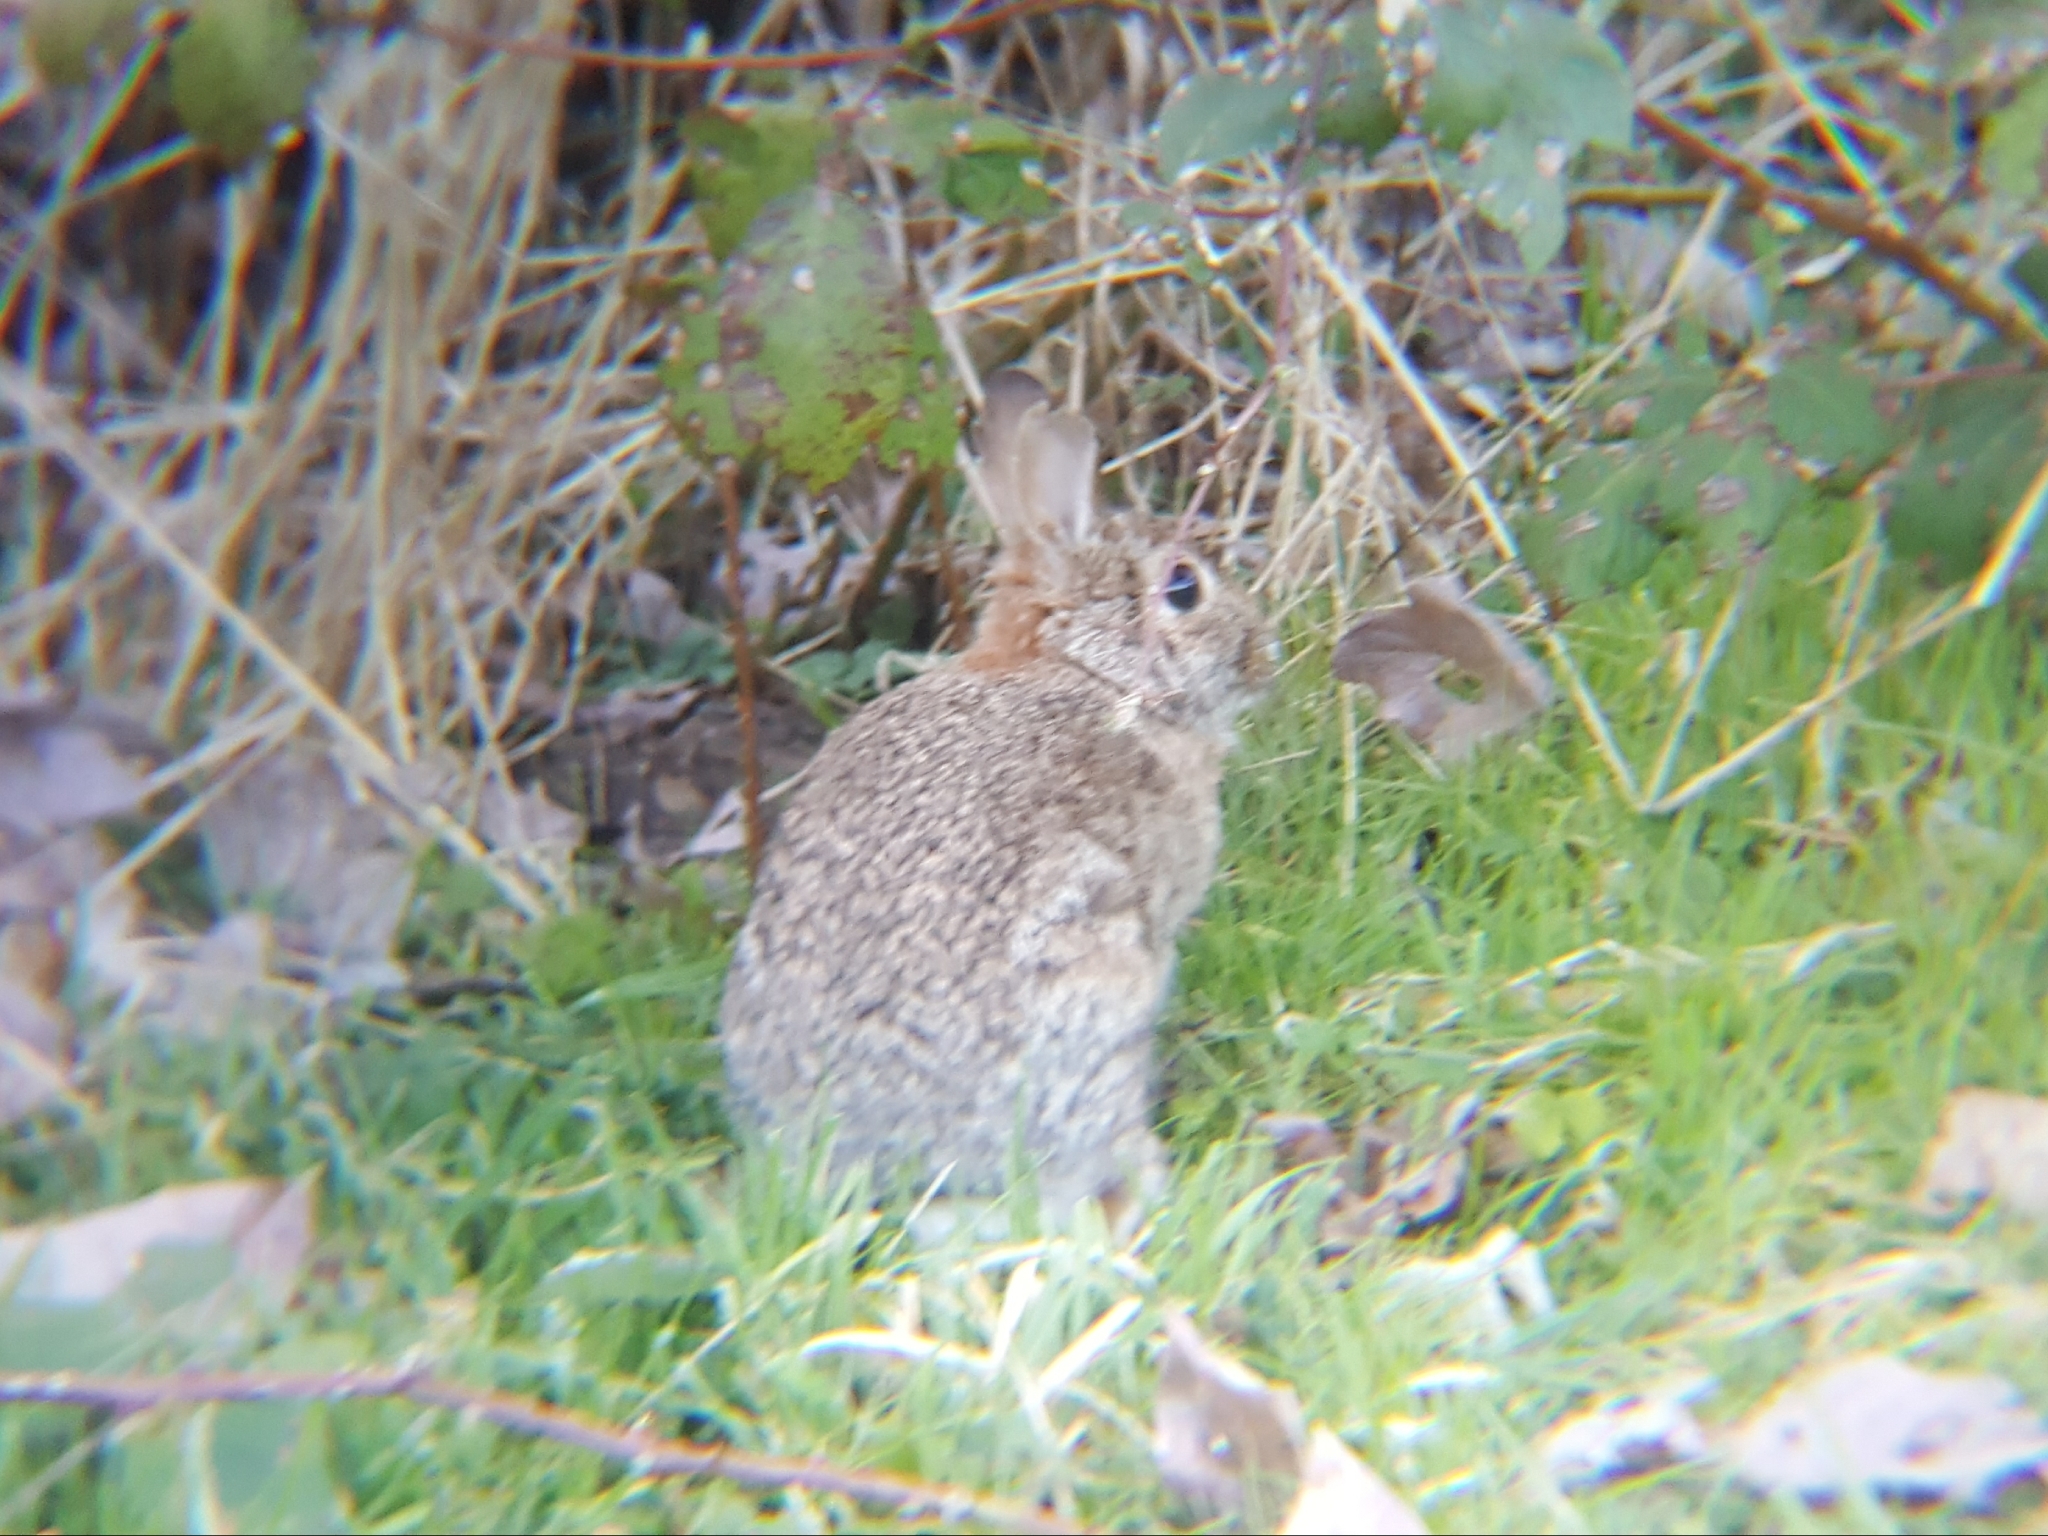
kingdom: Animalia
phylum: Chordata
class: Mammalia
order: Lagomorpha
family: Leporidae
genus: Sylvilagus
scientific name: Sylvilagus floridanus
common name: Eastern cottontail
